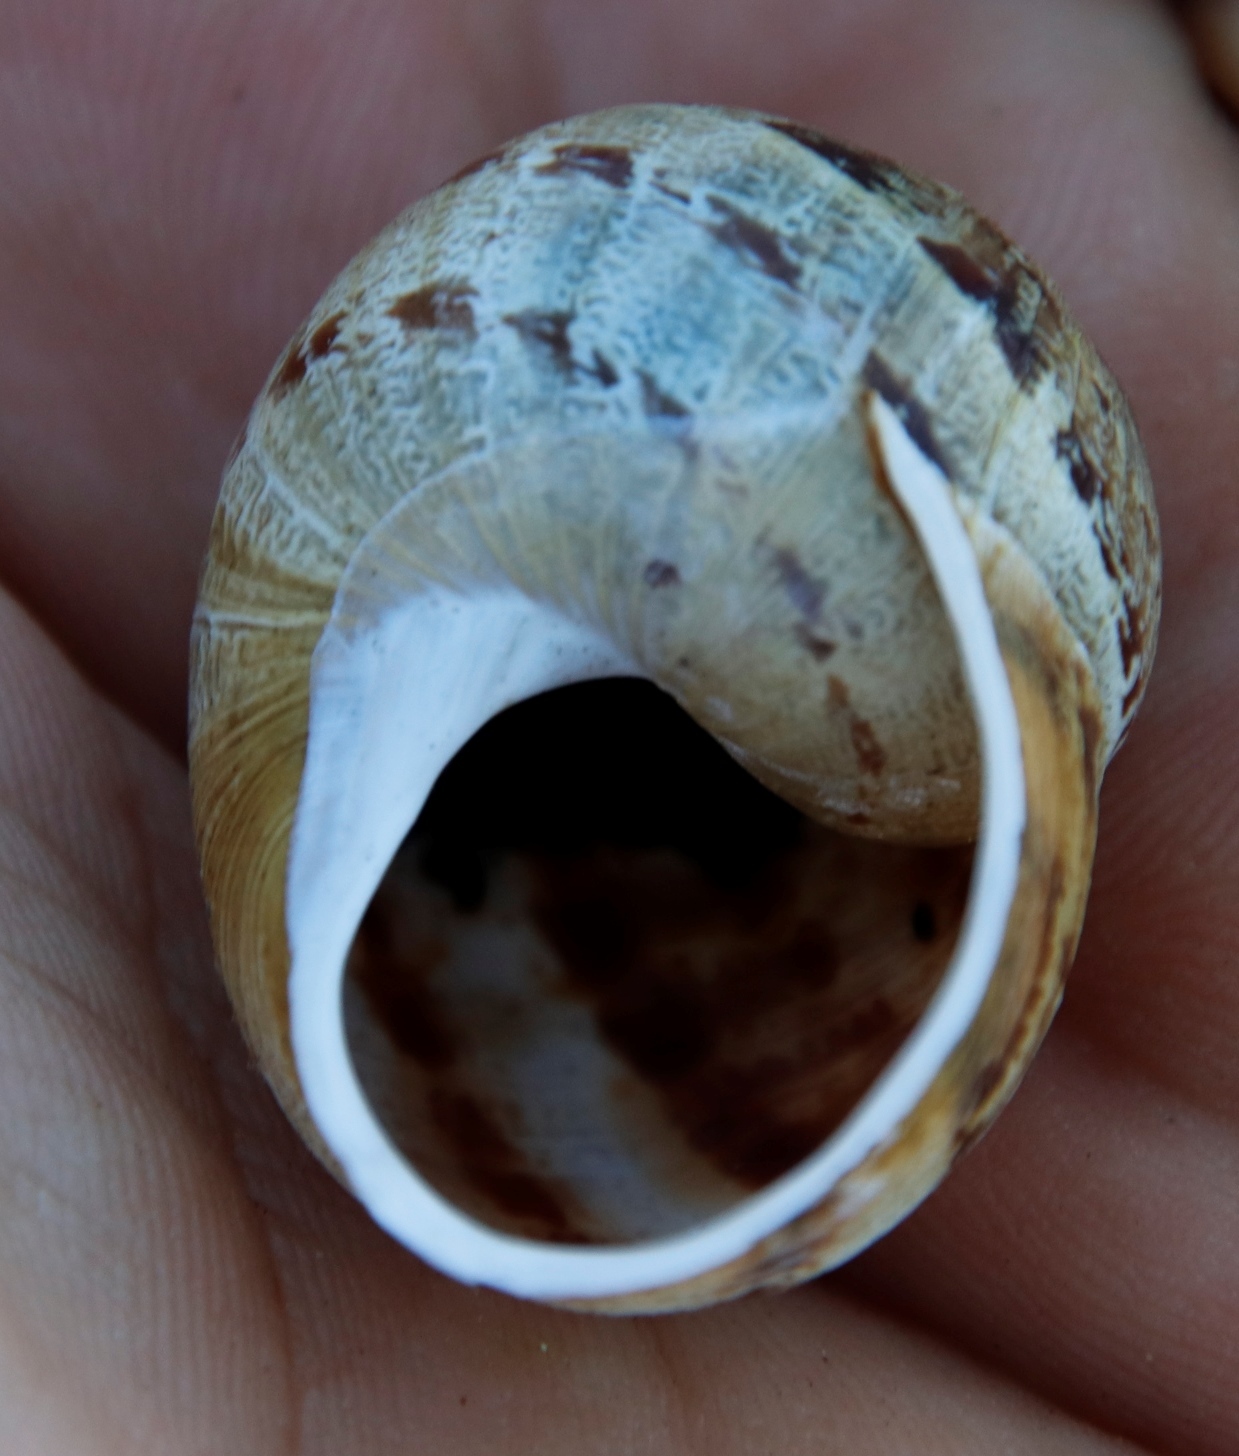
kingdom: Animalia
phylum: Mollusca
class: Gastropoda
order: Stylommatophora
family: Helicidae
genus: Cornu
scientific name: Cornu aspersum
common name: Brown garden snail
